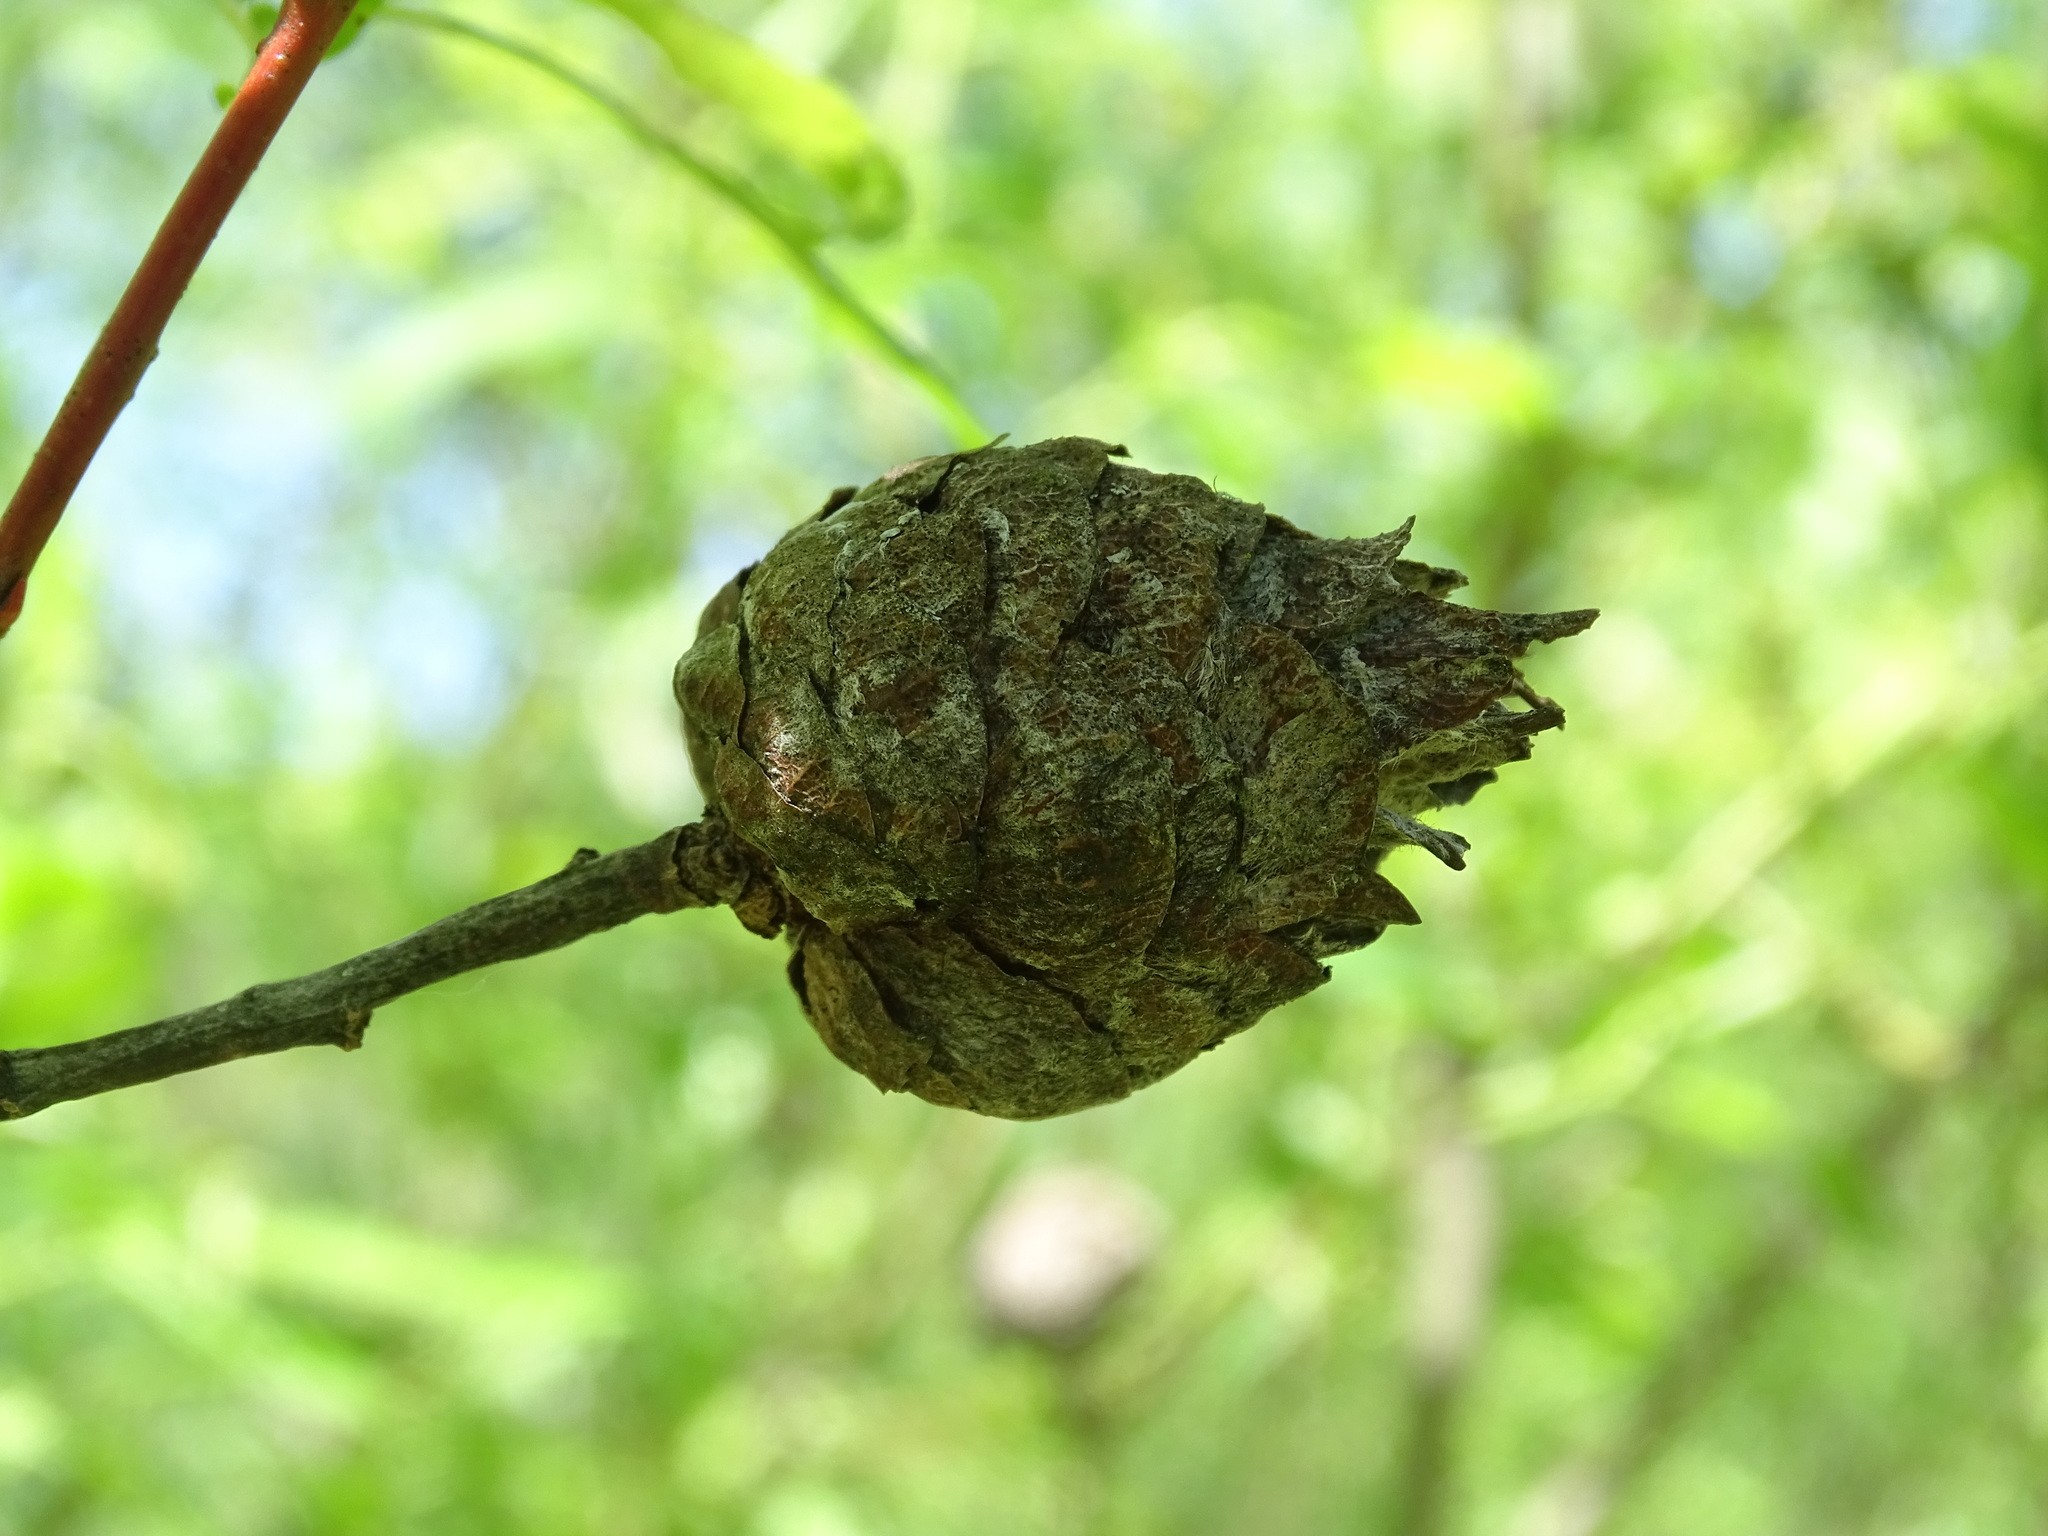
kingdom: Animalia
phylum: Arthropoda
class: Insecta
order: Diptera
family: Cecidomyiidae
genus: Rabdophaga
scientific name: Rabdophaga strobiloides
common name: Willow pinecone gall midge
